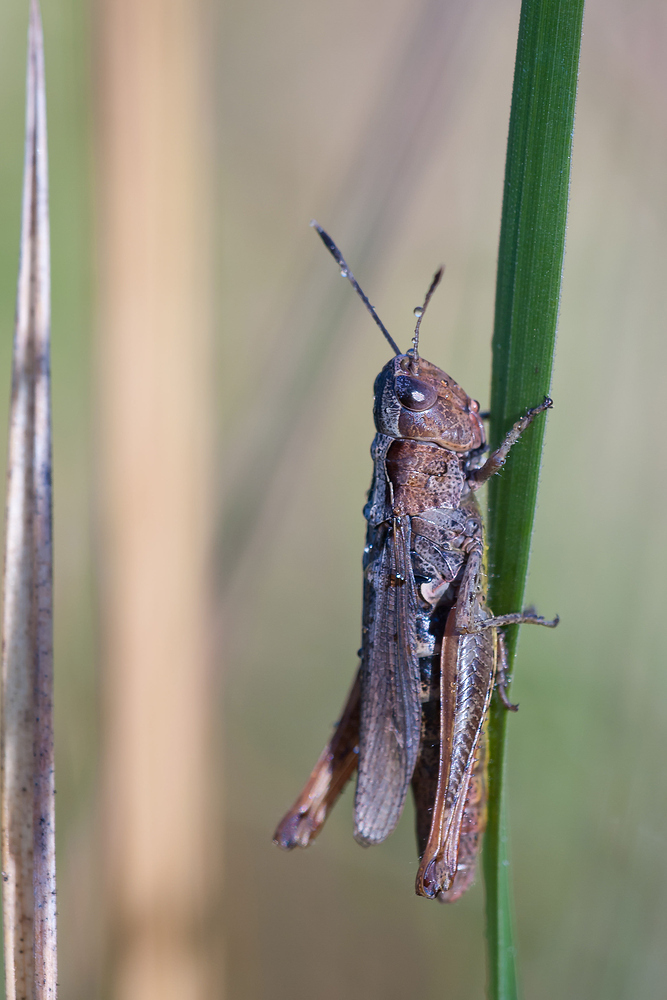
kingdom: Animalia
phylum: Arthropoda
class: Insecta
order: Orthoptera
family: Acrididae
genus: Gomphocerippus
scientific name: Gomphocerippus rufus
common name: Rufous grasshopper
